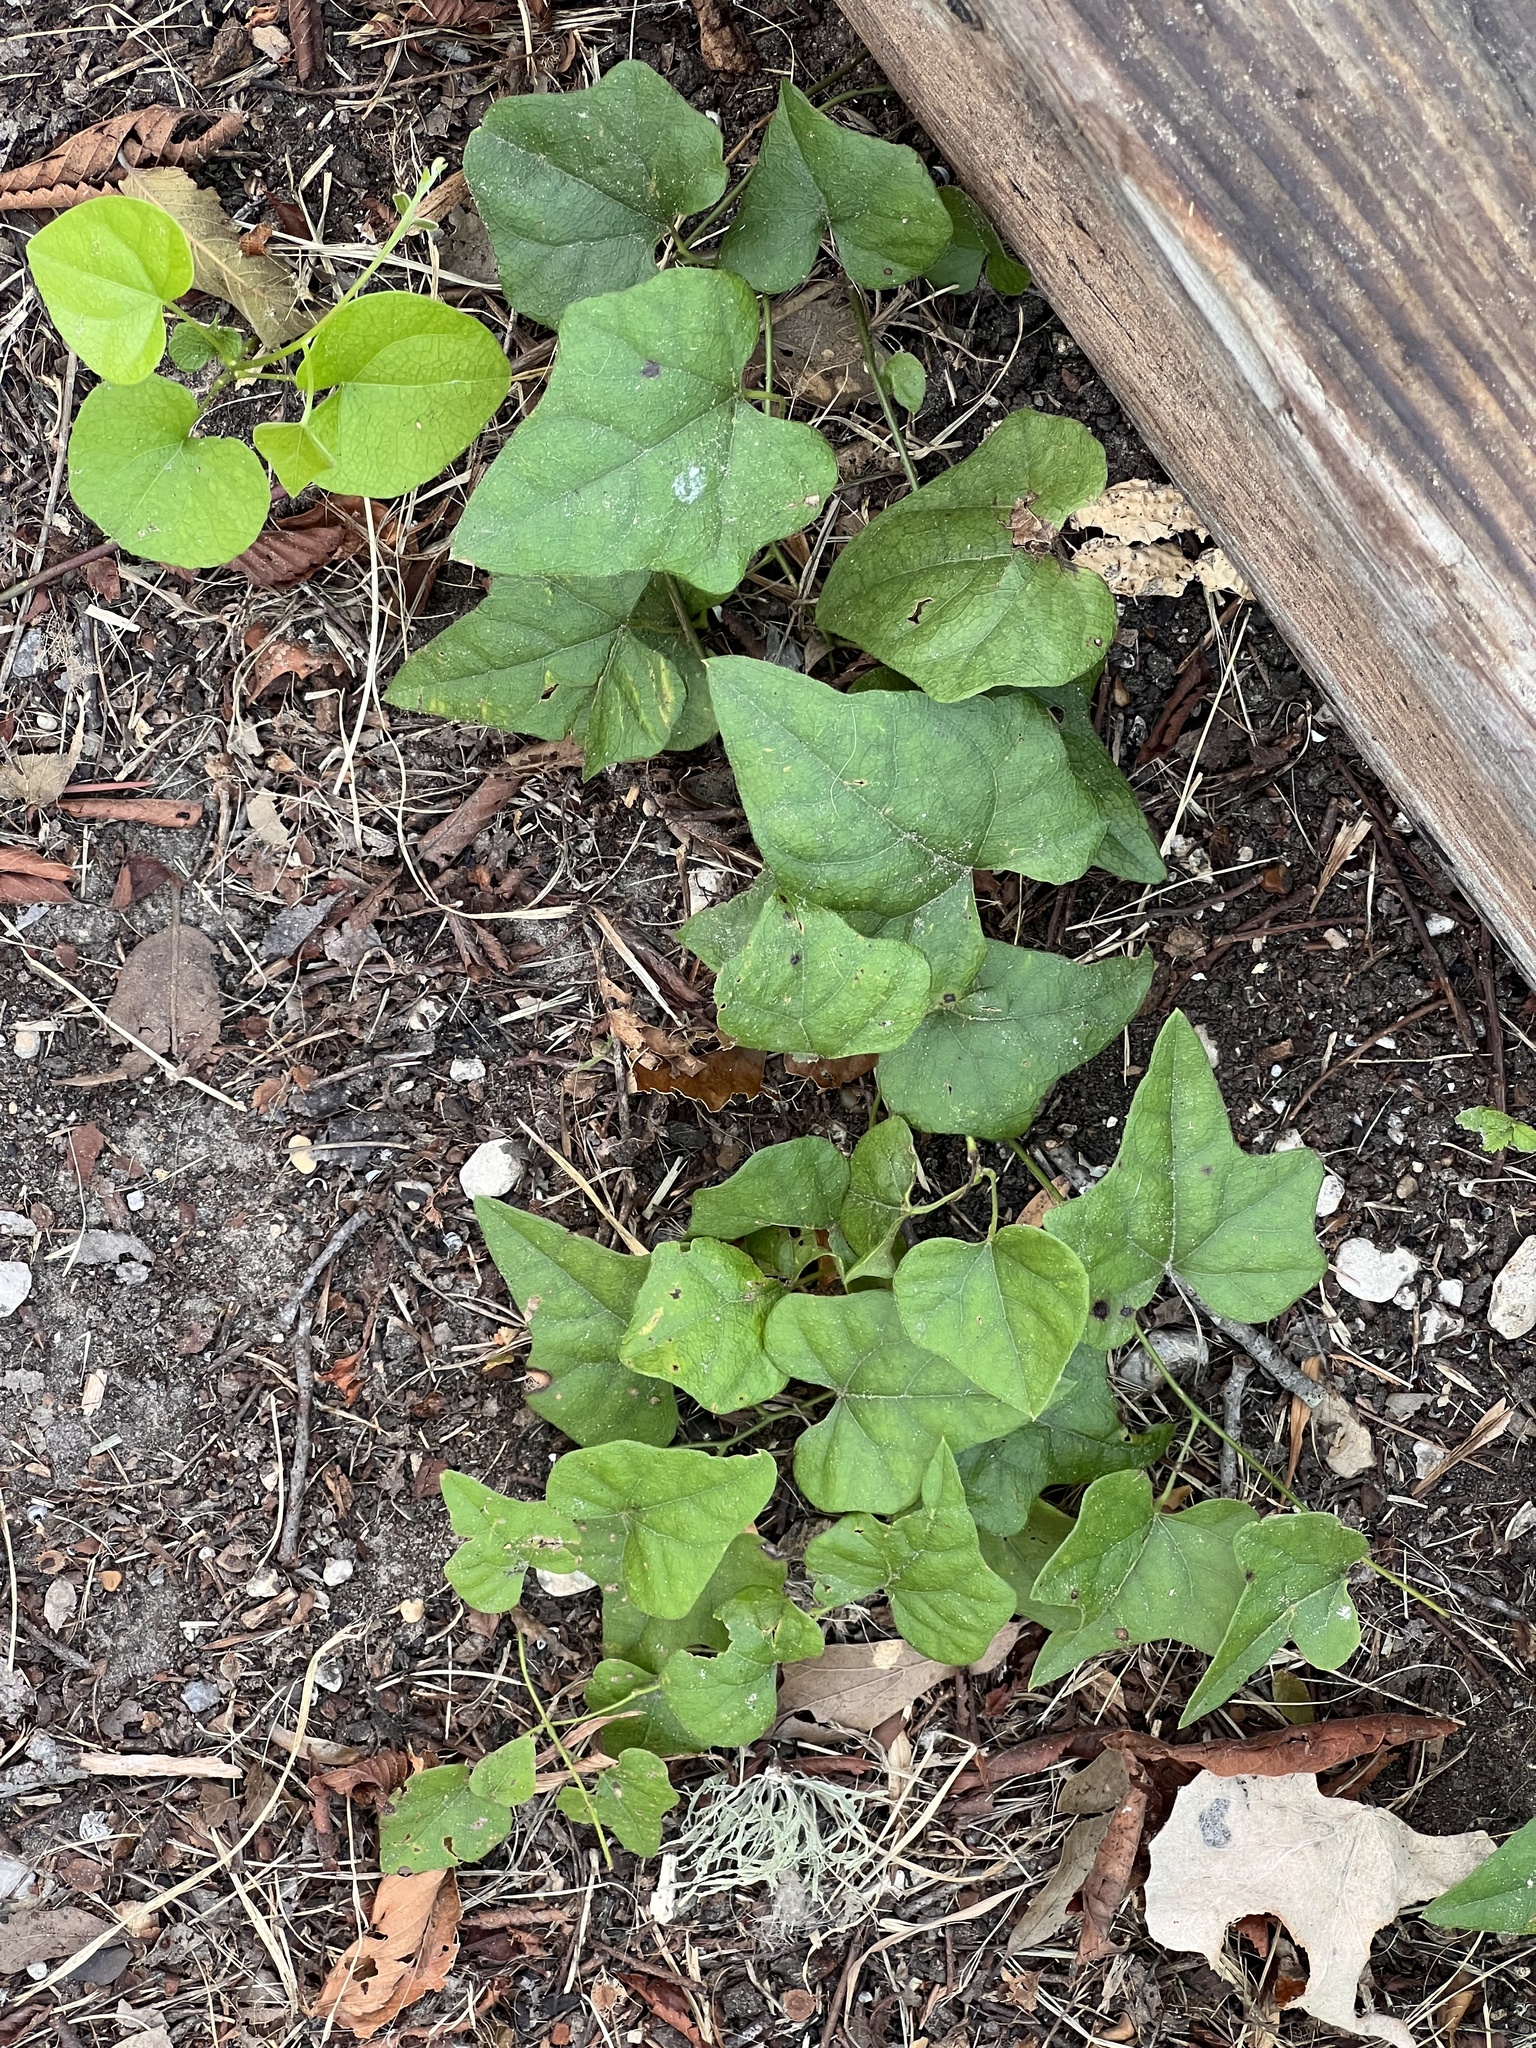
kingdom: Plantae
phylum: Tracheophyta
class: Magnoliopsida
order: Ranunculales
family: Menispermaceae
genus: Cocculus
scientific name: Cocculus carolinus
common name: Carolina moonseed
